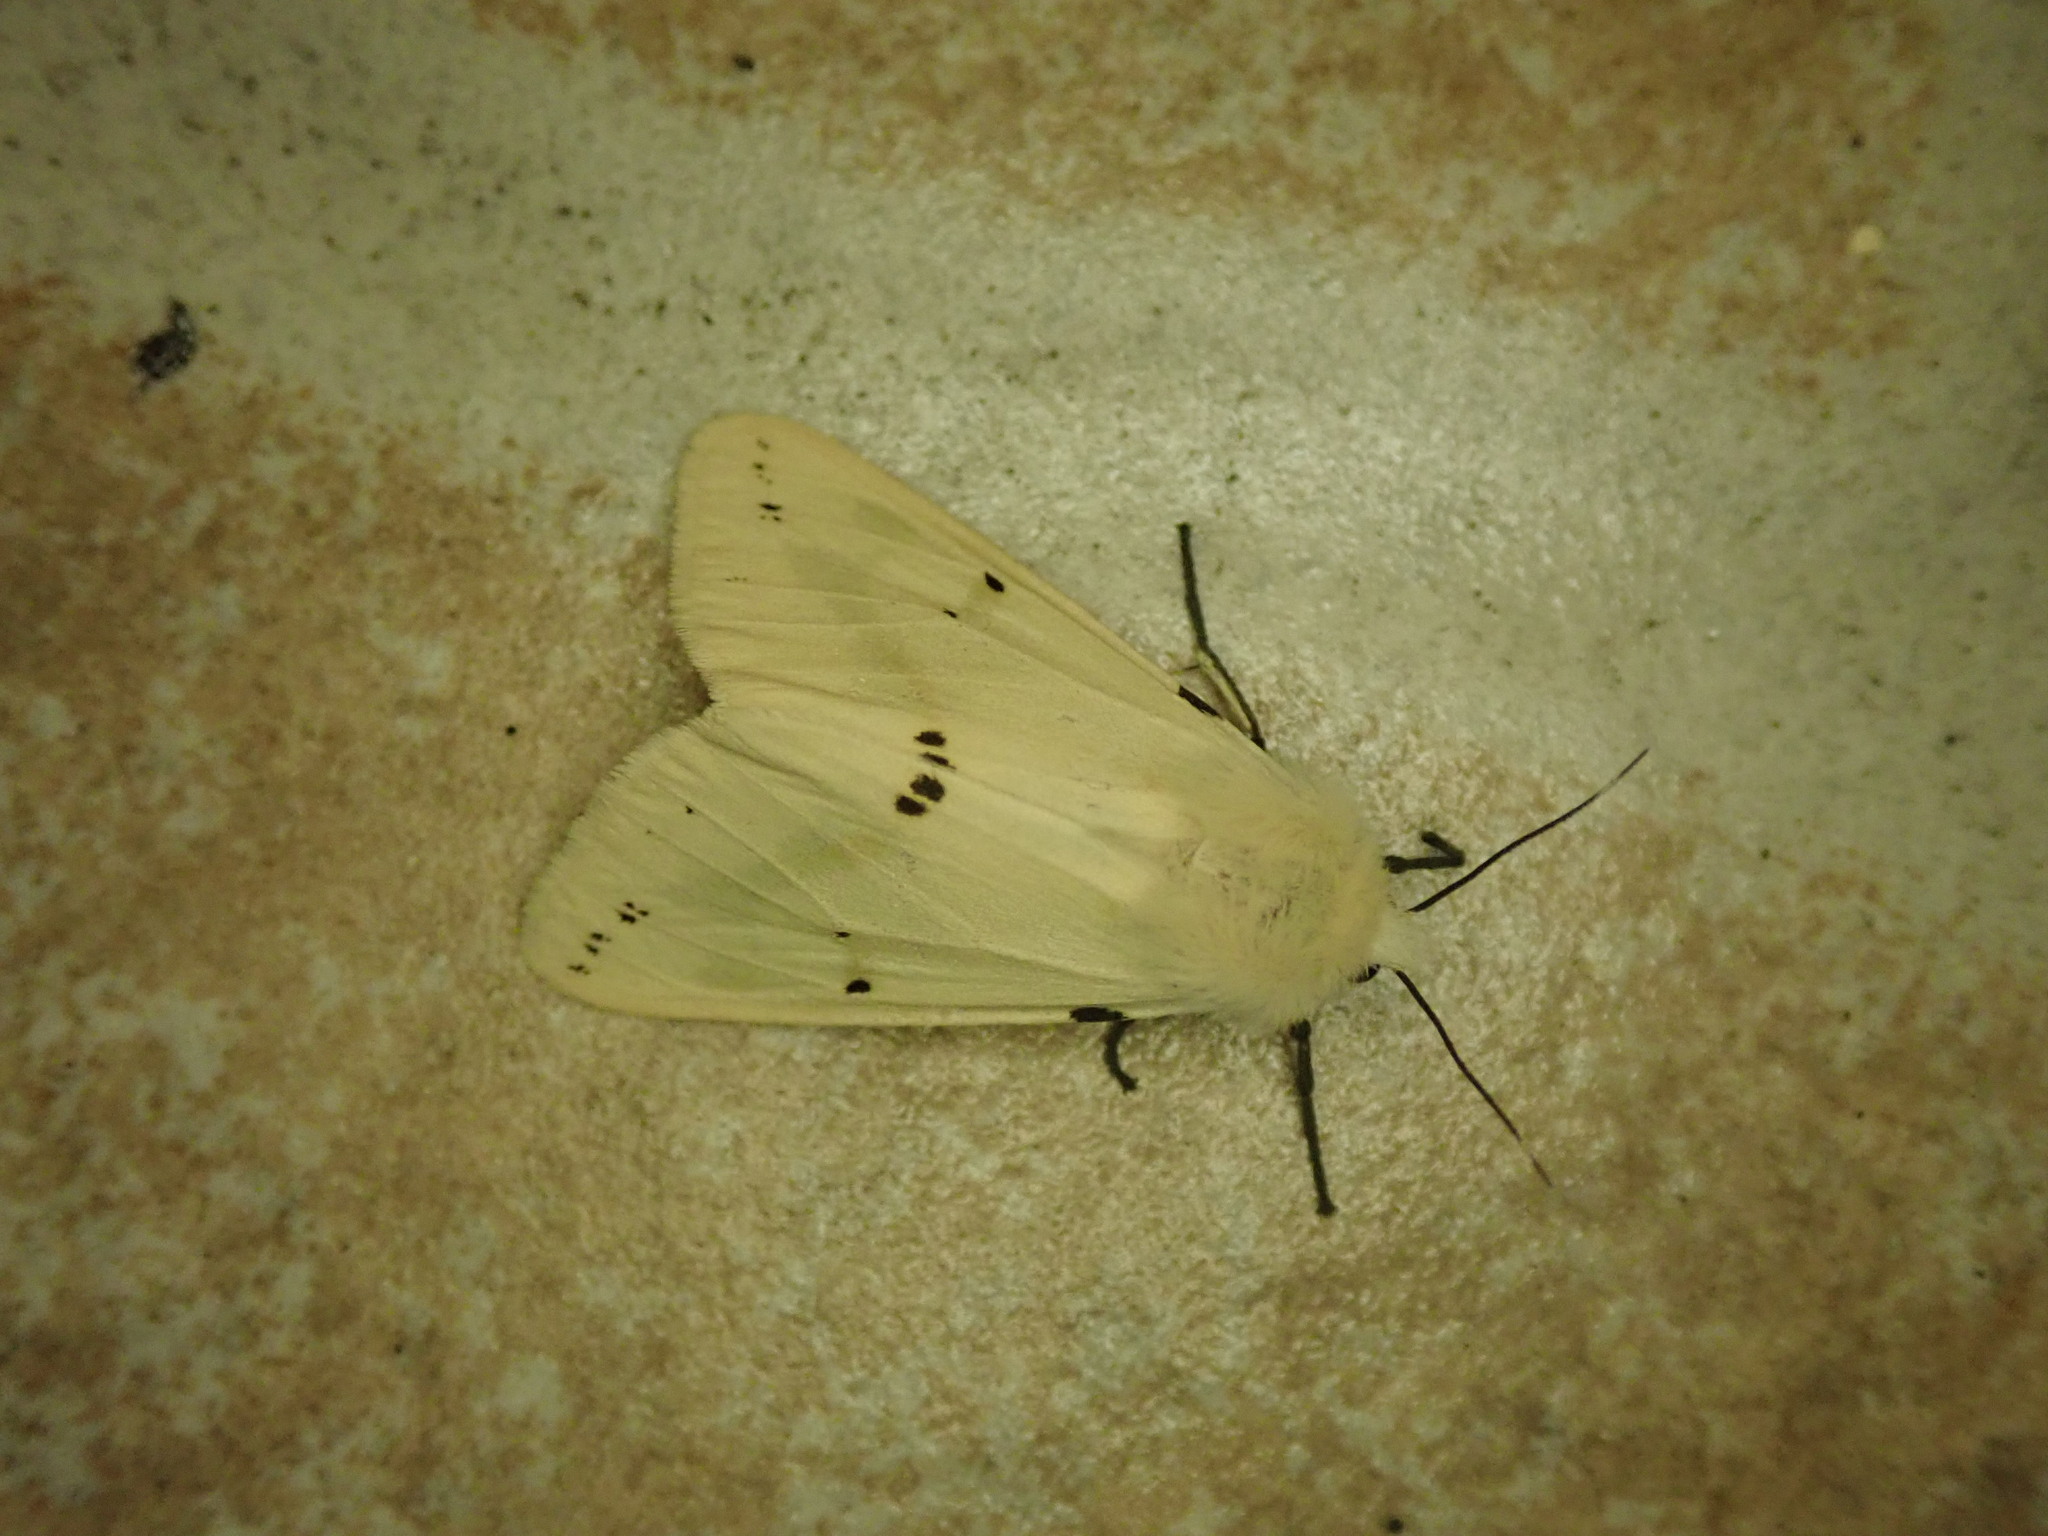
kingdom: Animalia
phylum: Arthropoda
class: Insecta
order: Lepidoptera
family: Erebidae
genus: Spilarctia
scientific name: Spilarctia lutea
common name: Buff ermine
